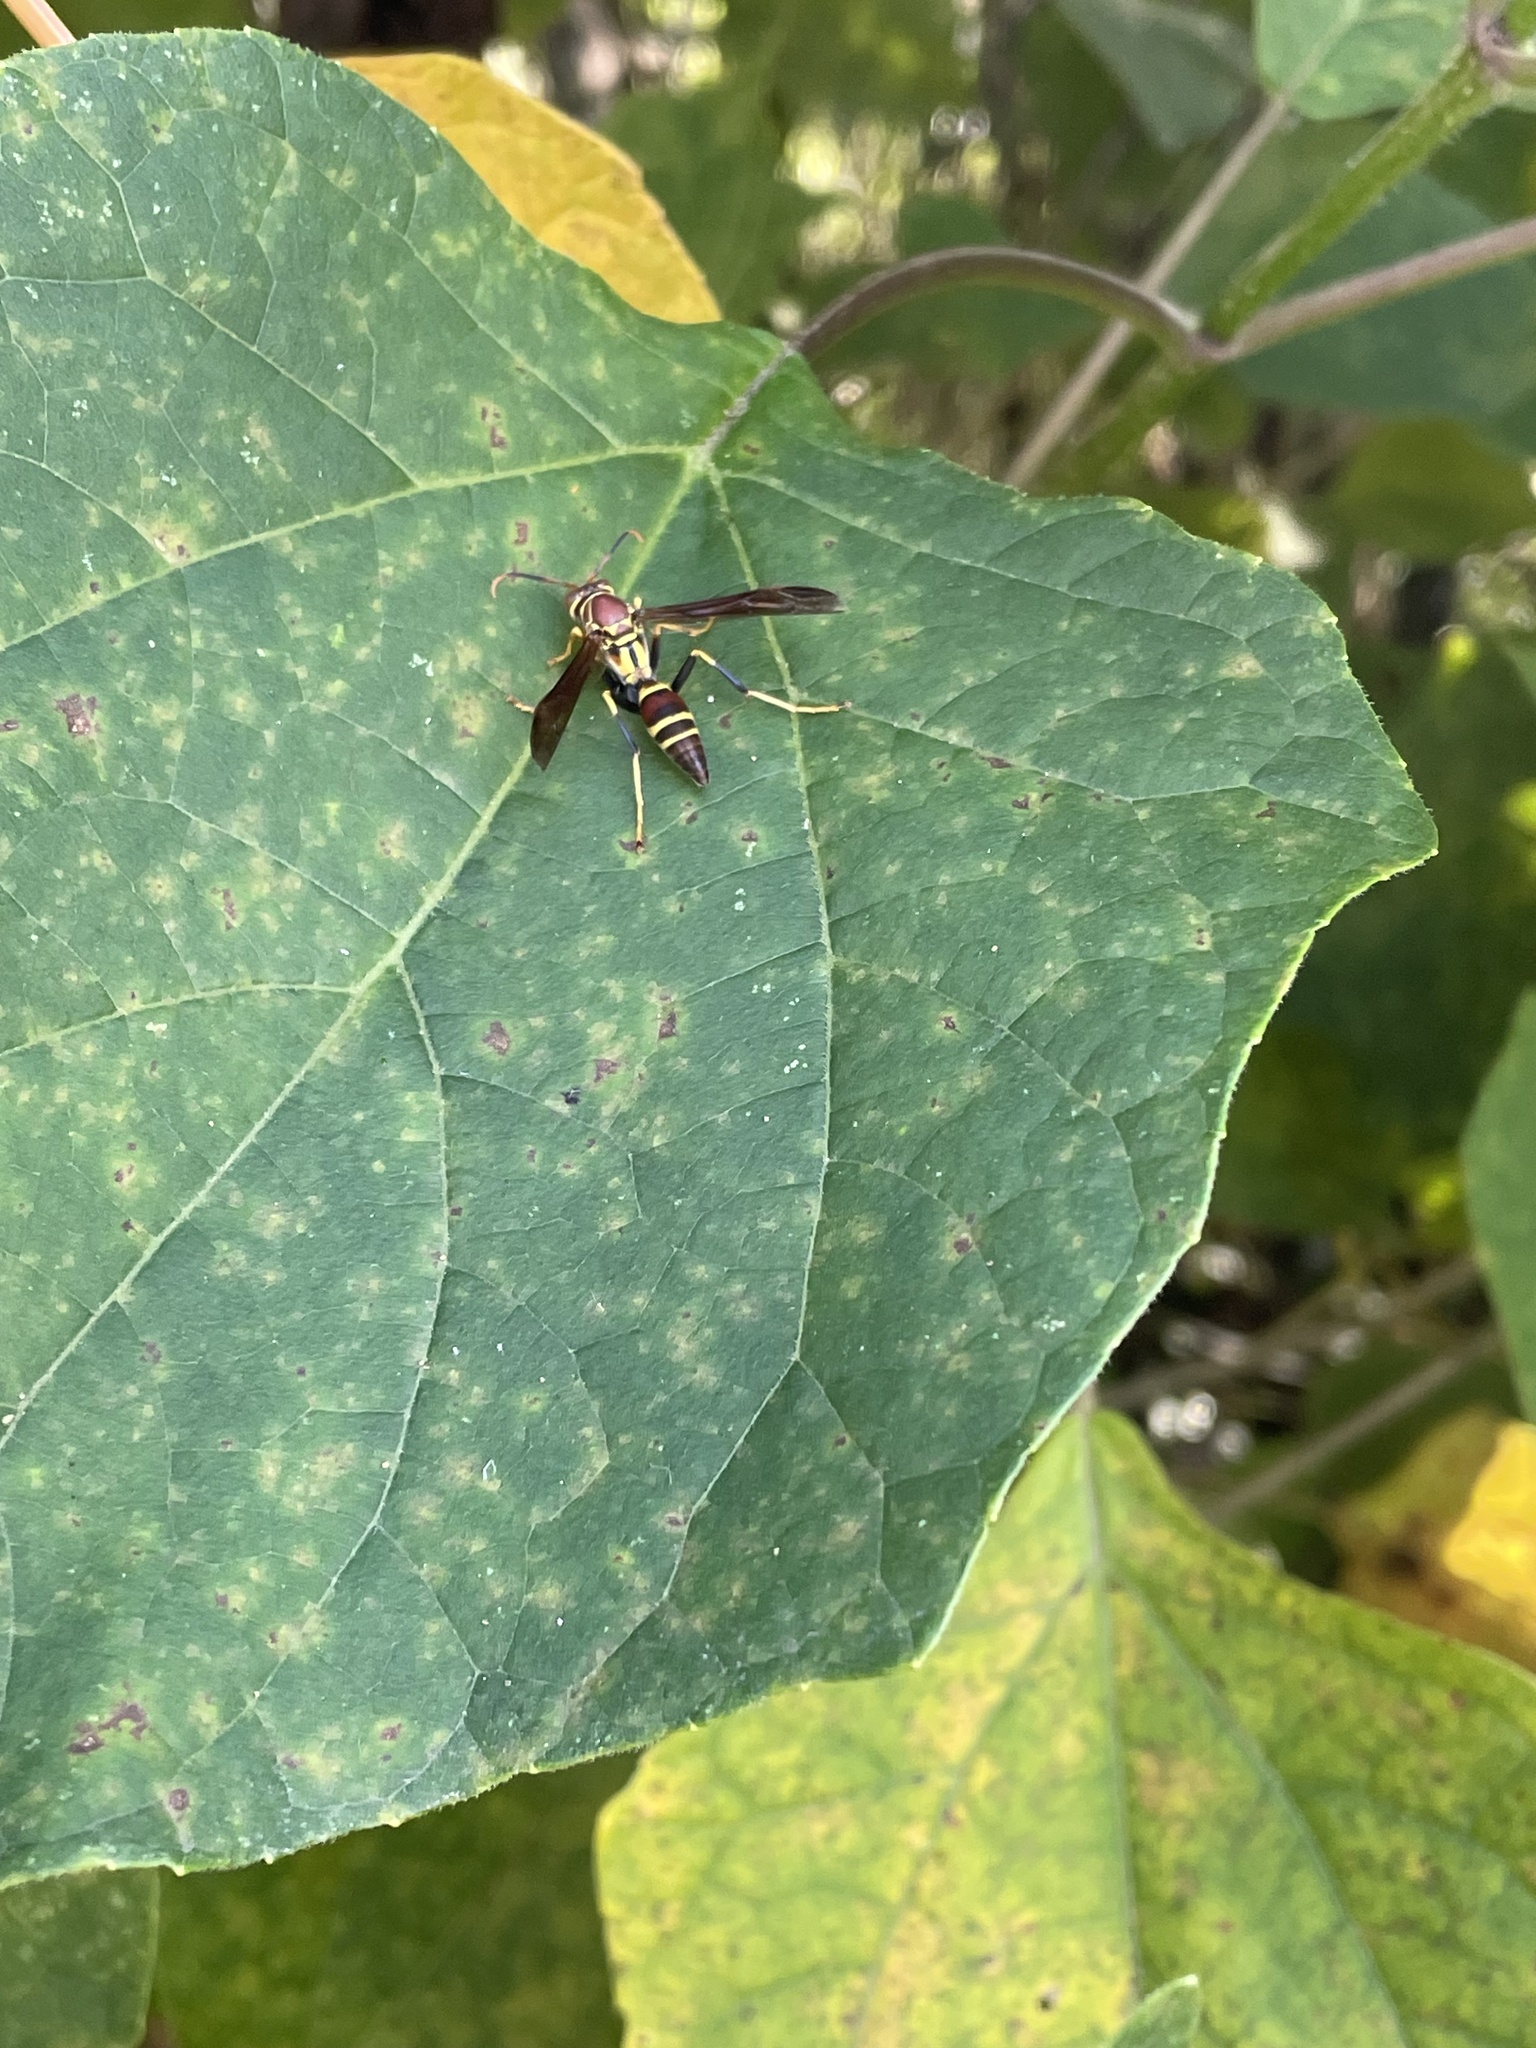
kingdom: Animalia
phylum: Arthropoda
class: Insecta
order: Hymenoptera
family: Eumenidae
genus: Polistes
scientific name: Polistes instabilis
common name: Unstable paper wasp
